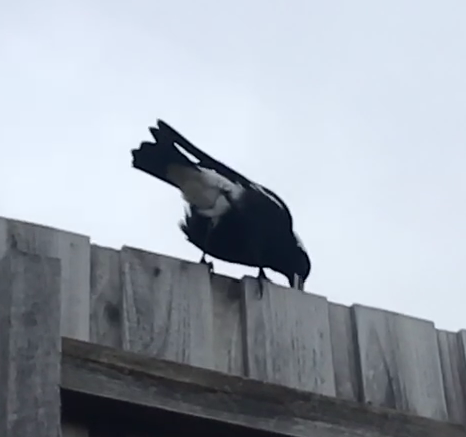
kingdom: Animalia
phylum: Chordata
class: Aves
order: Passeriformes
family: Cracticidae
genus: Gymnorhina
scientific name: Gymnorhina tibicen
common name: Australian magpie
